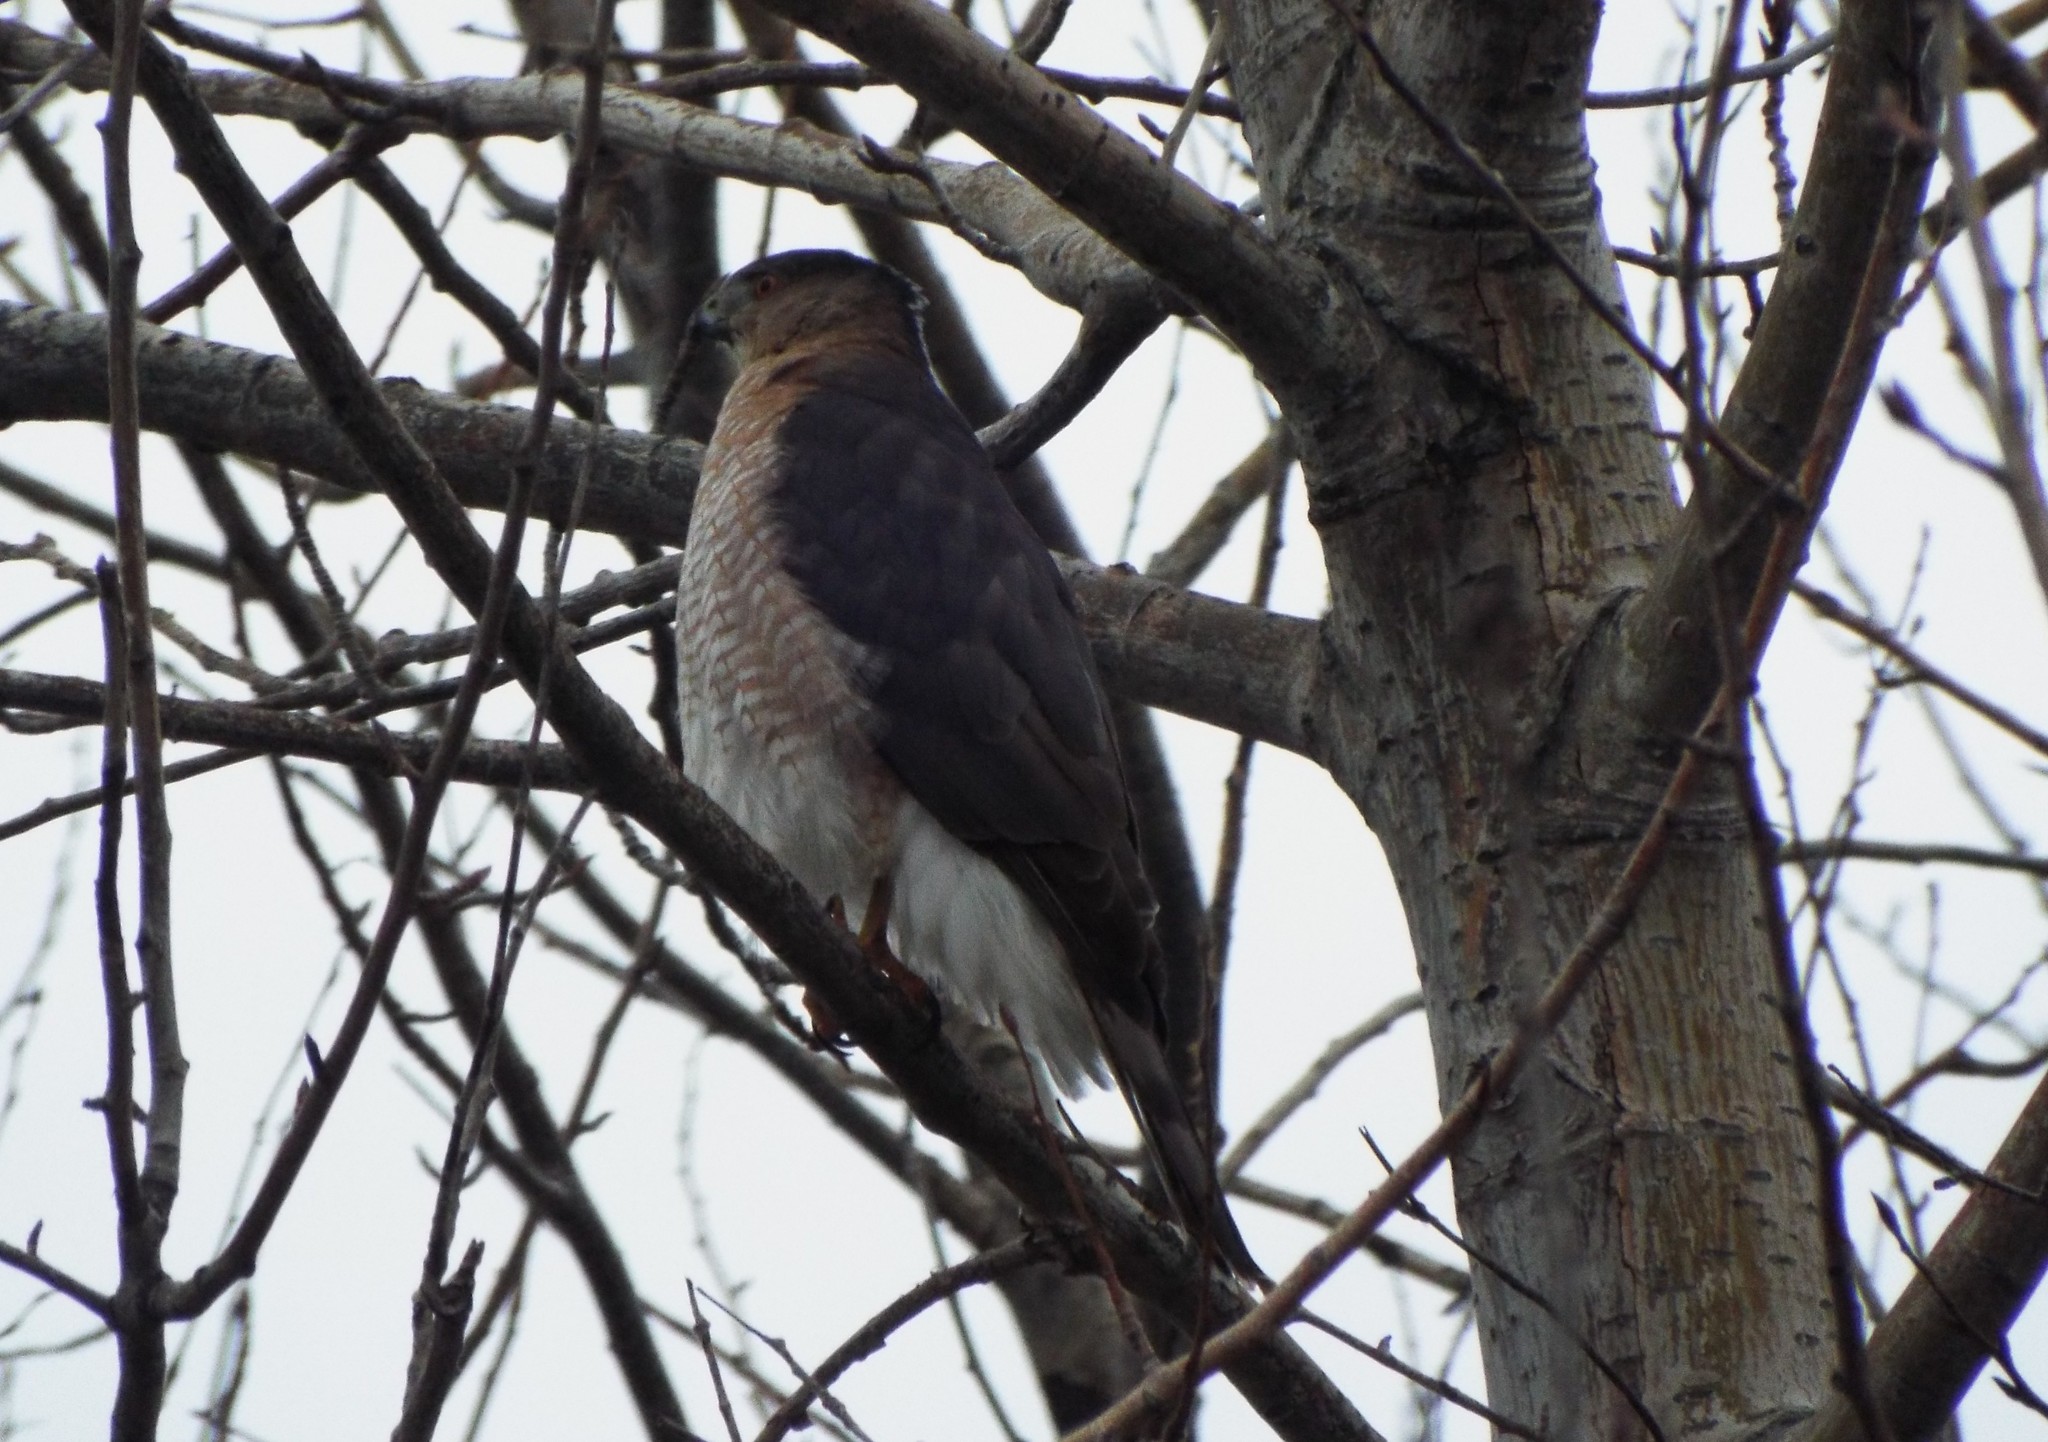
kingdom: Animalia
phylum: Chordata
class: Aves
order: Accipitriformes
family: Accipitridae
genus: Accipiter
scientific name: Accipiter cooperii
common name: Cooper's hawk
